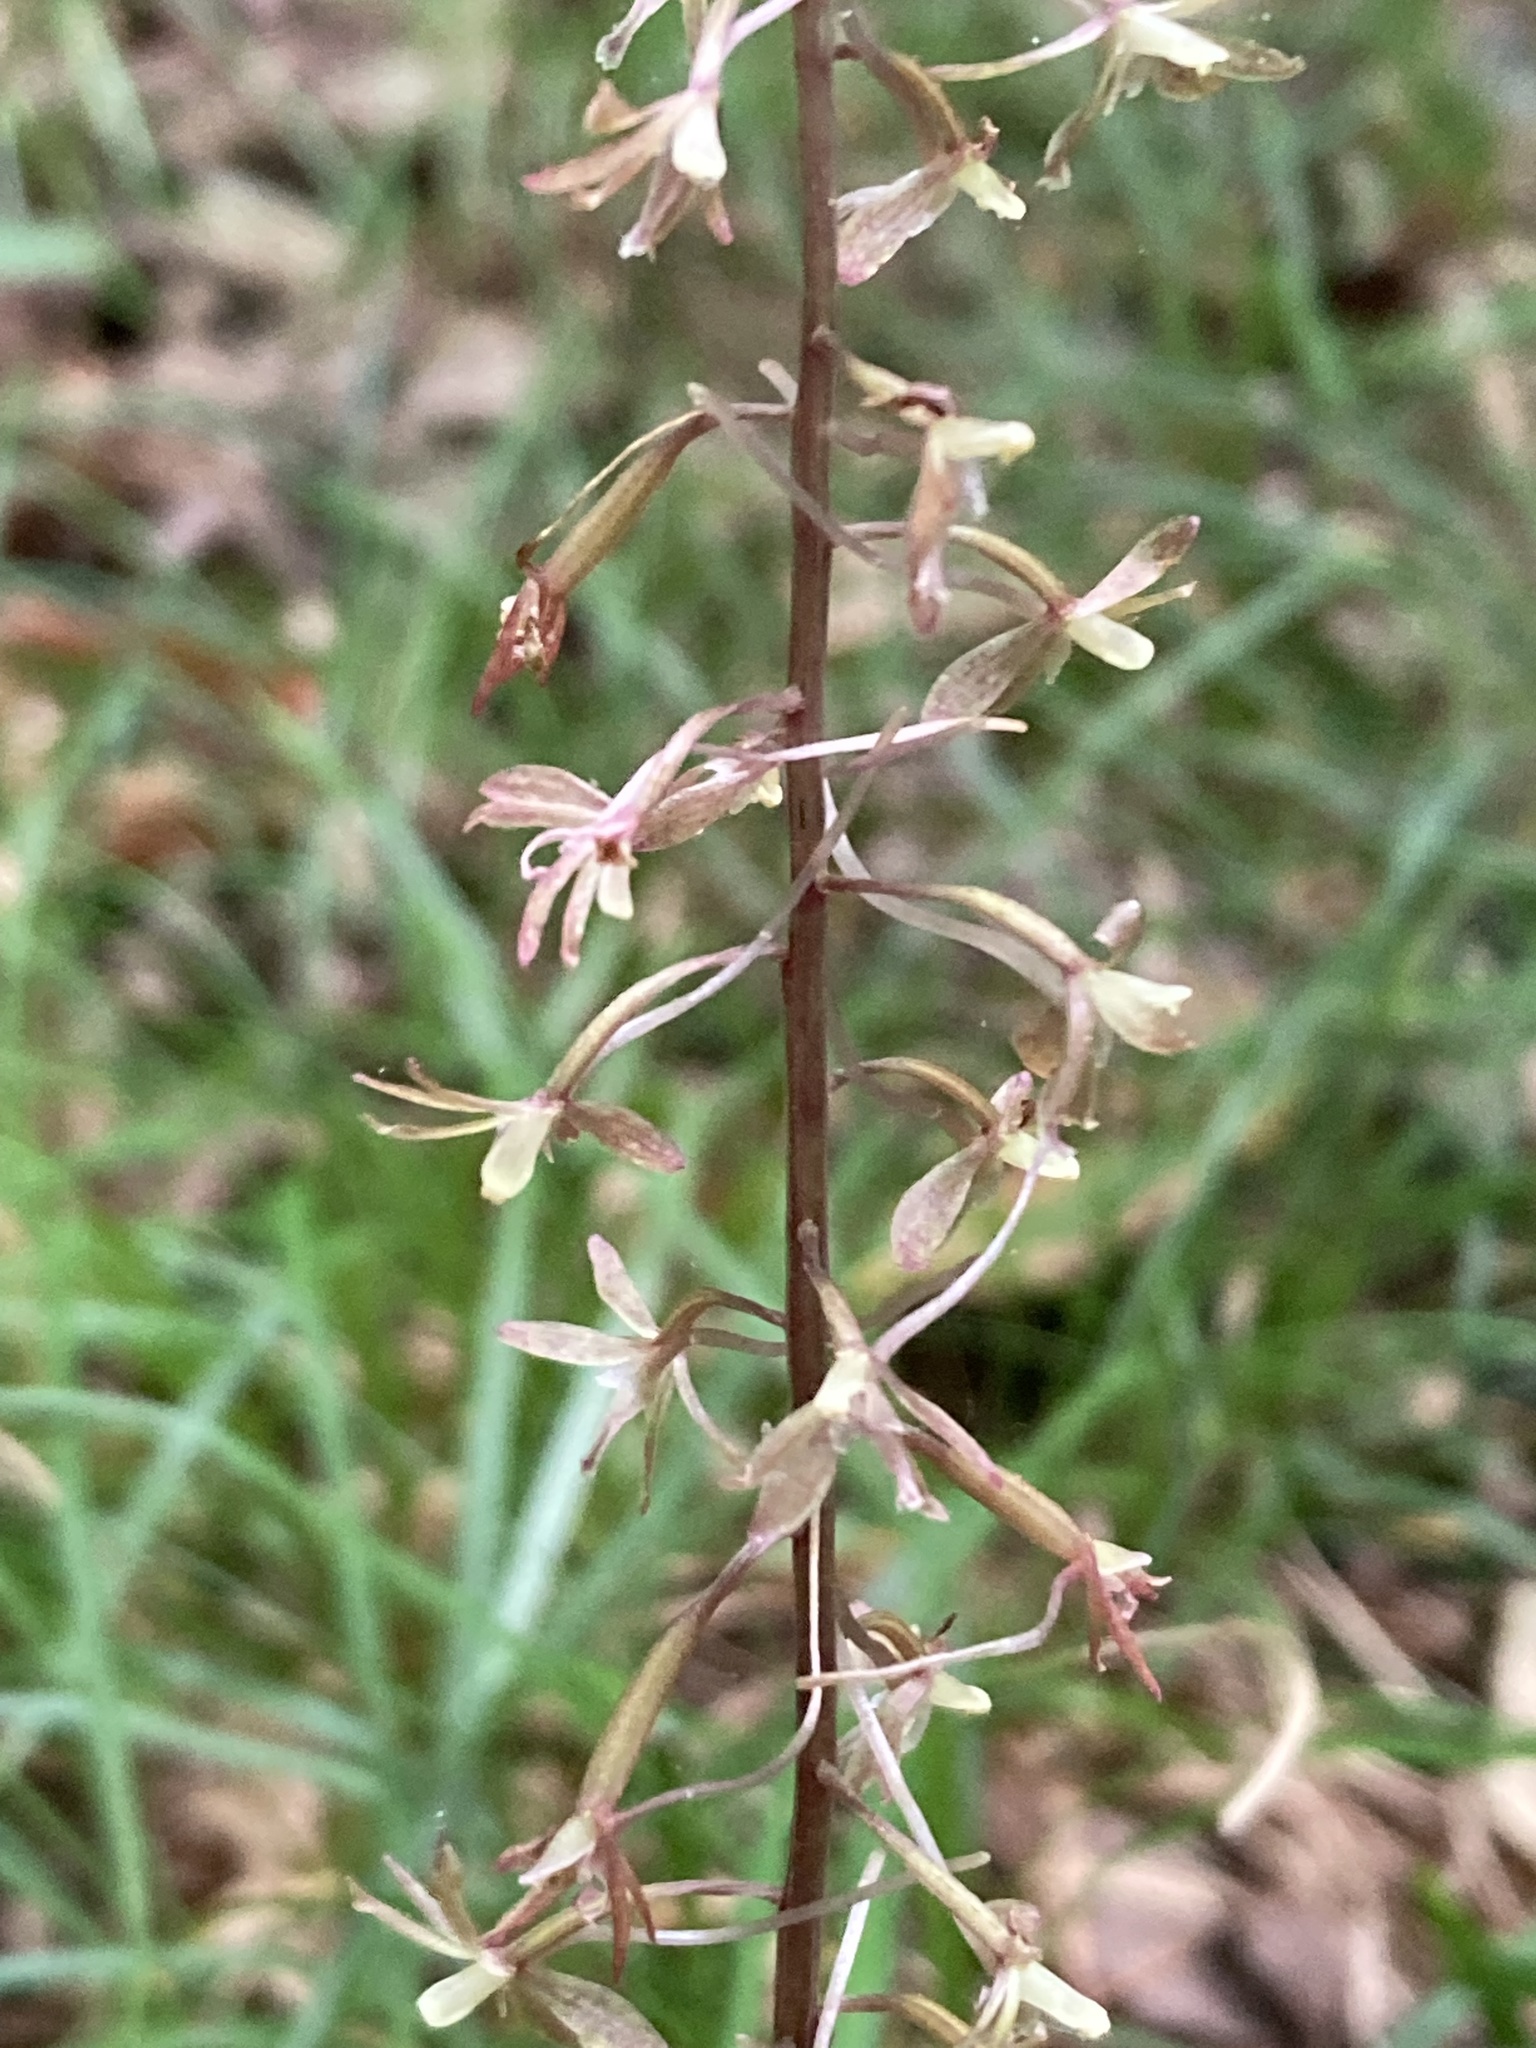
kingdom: Plantae
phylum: Tracheophyta
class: Liliopsida
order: Asparagales
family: Orchidaceae
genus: Tipularia
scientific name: Tipularia discolor
